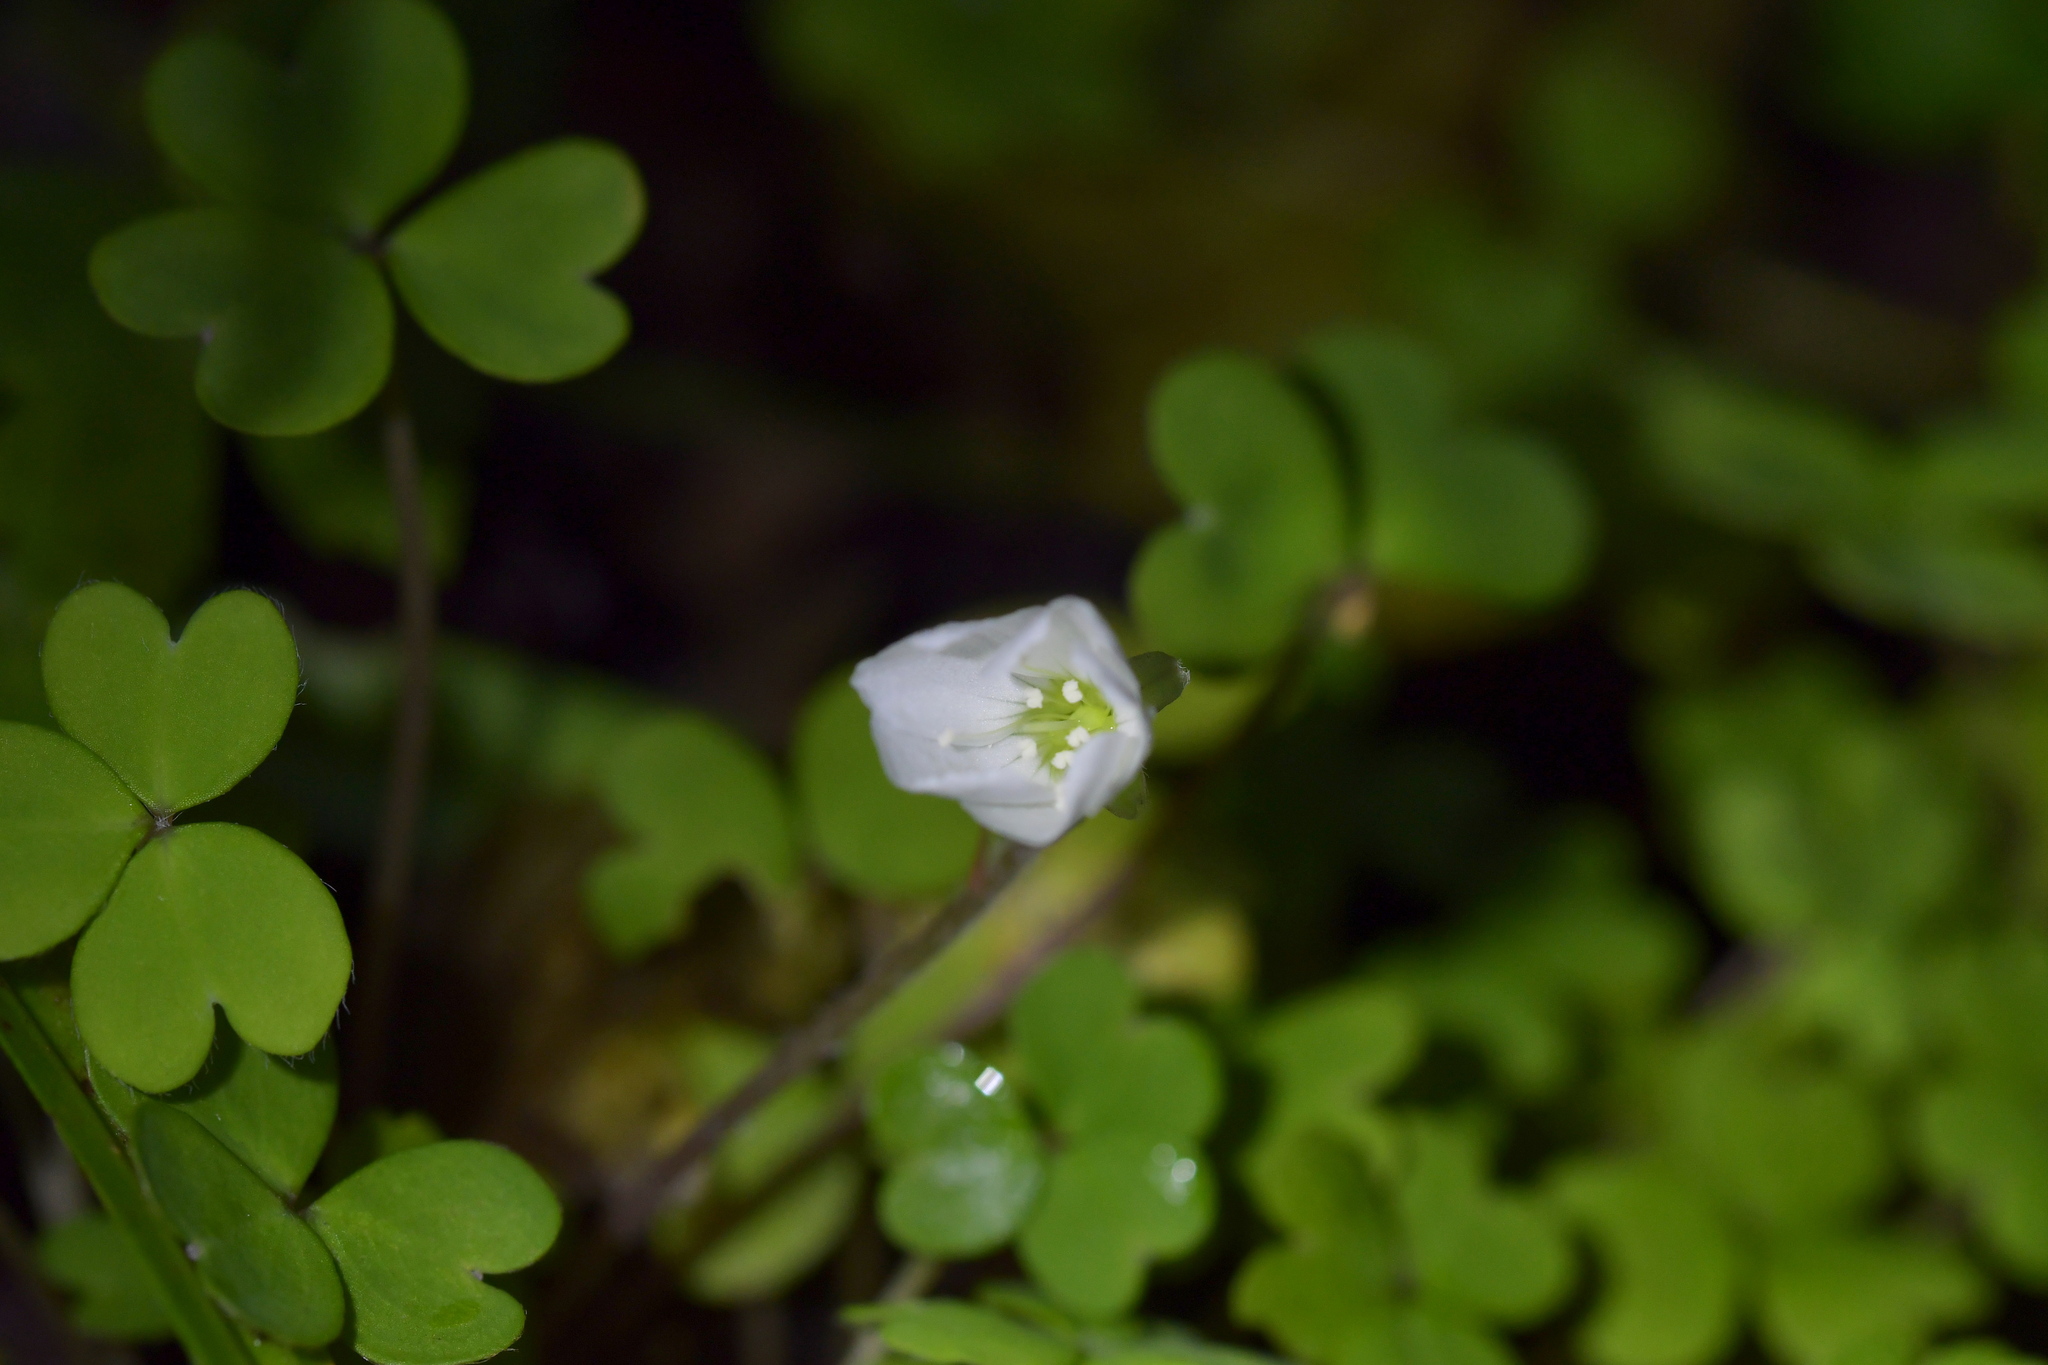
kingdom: Plantae
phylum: Tracheophyta
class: Magnoliopsida
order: Oxalidales
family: Oxalidaceae
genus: Oxalis
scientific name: Oxalis magellanica
